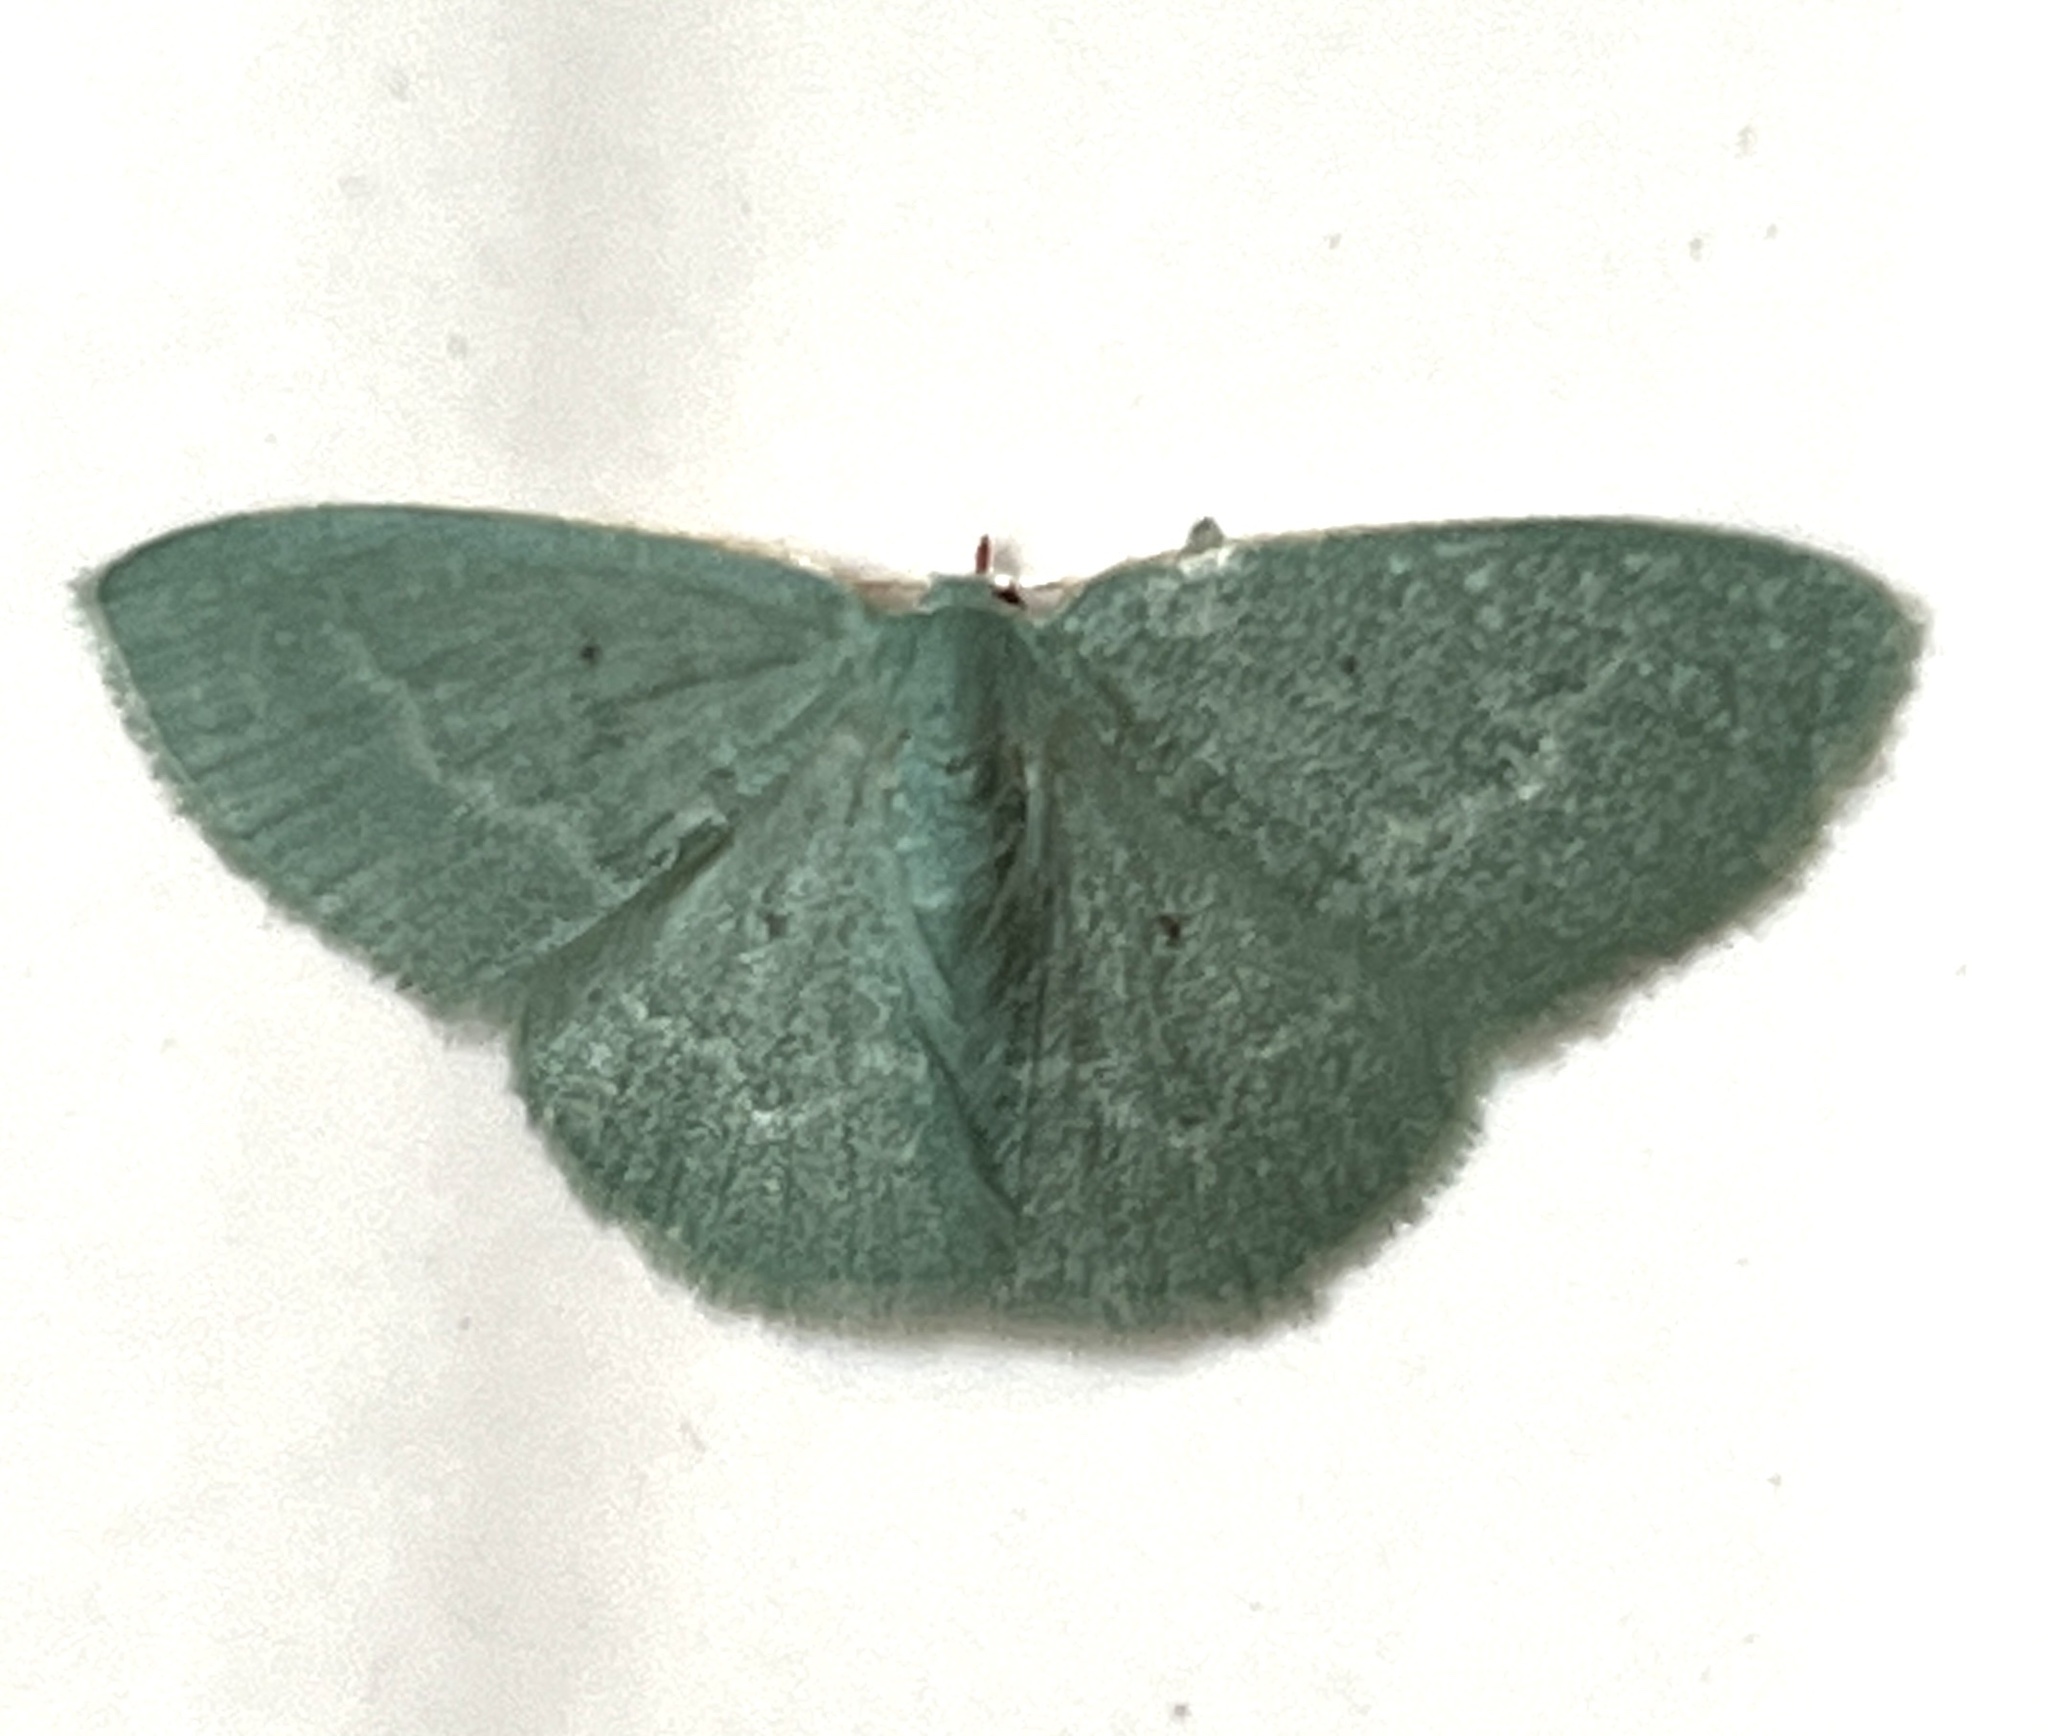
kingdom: Animalia
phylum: Arthropoda
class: Insecta
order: Lepidoptera
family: Geometridae
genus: Chlorissa
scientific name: Chlorissa albistrigulata
